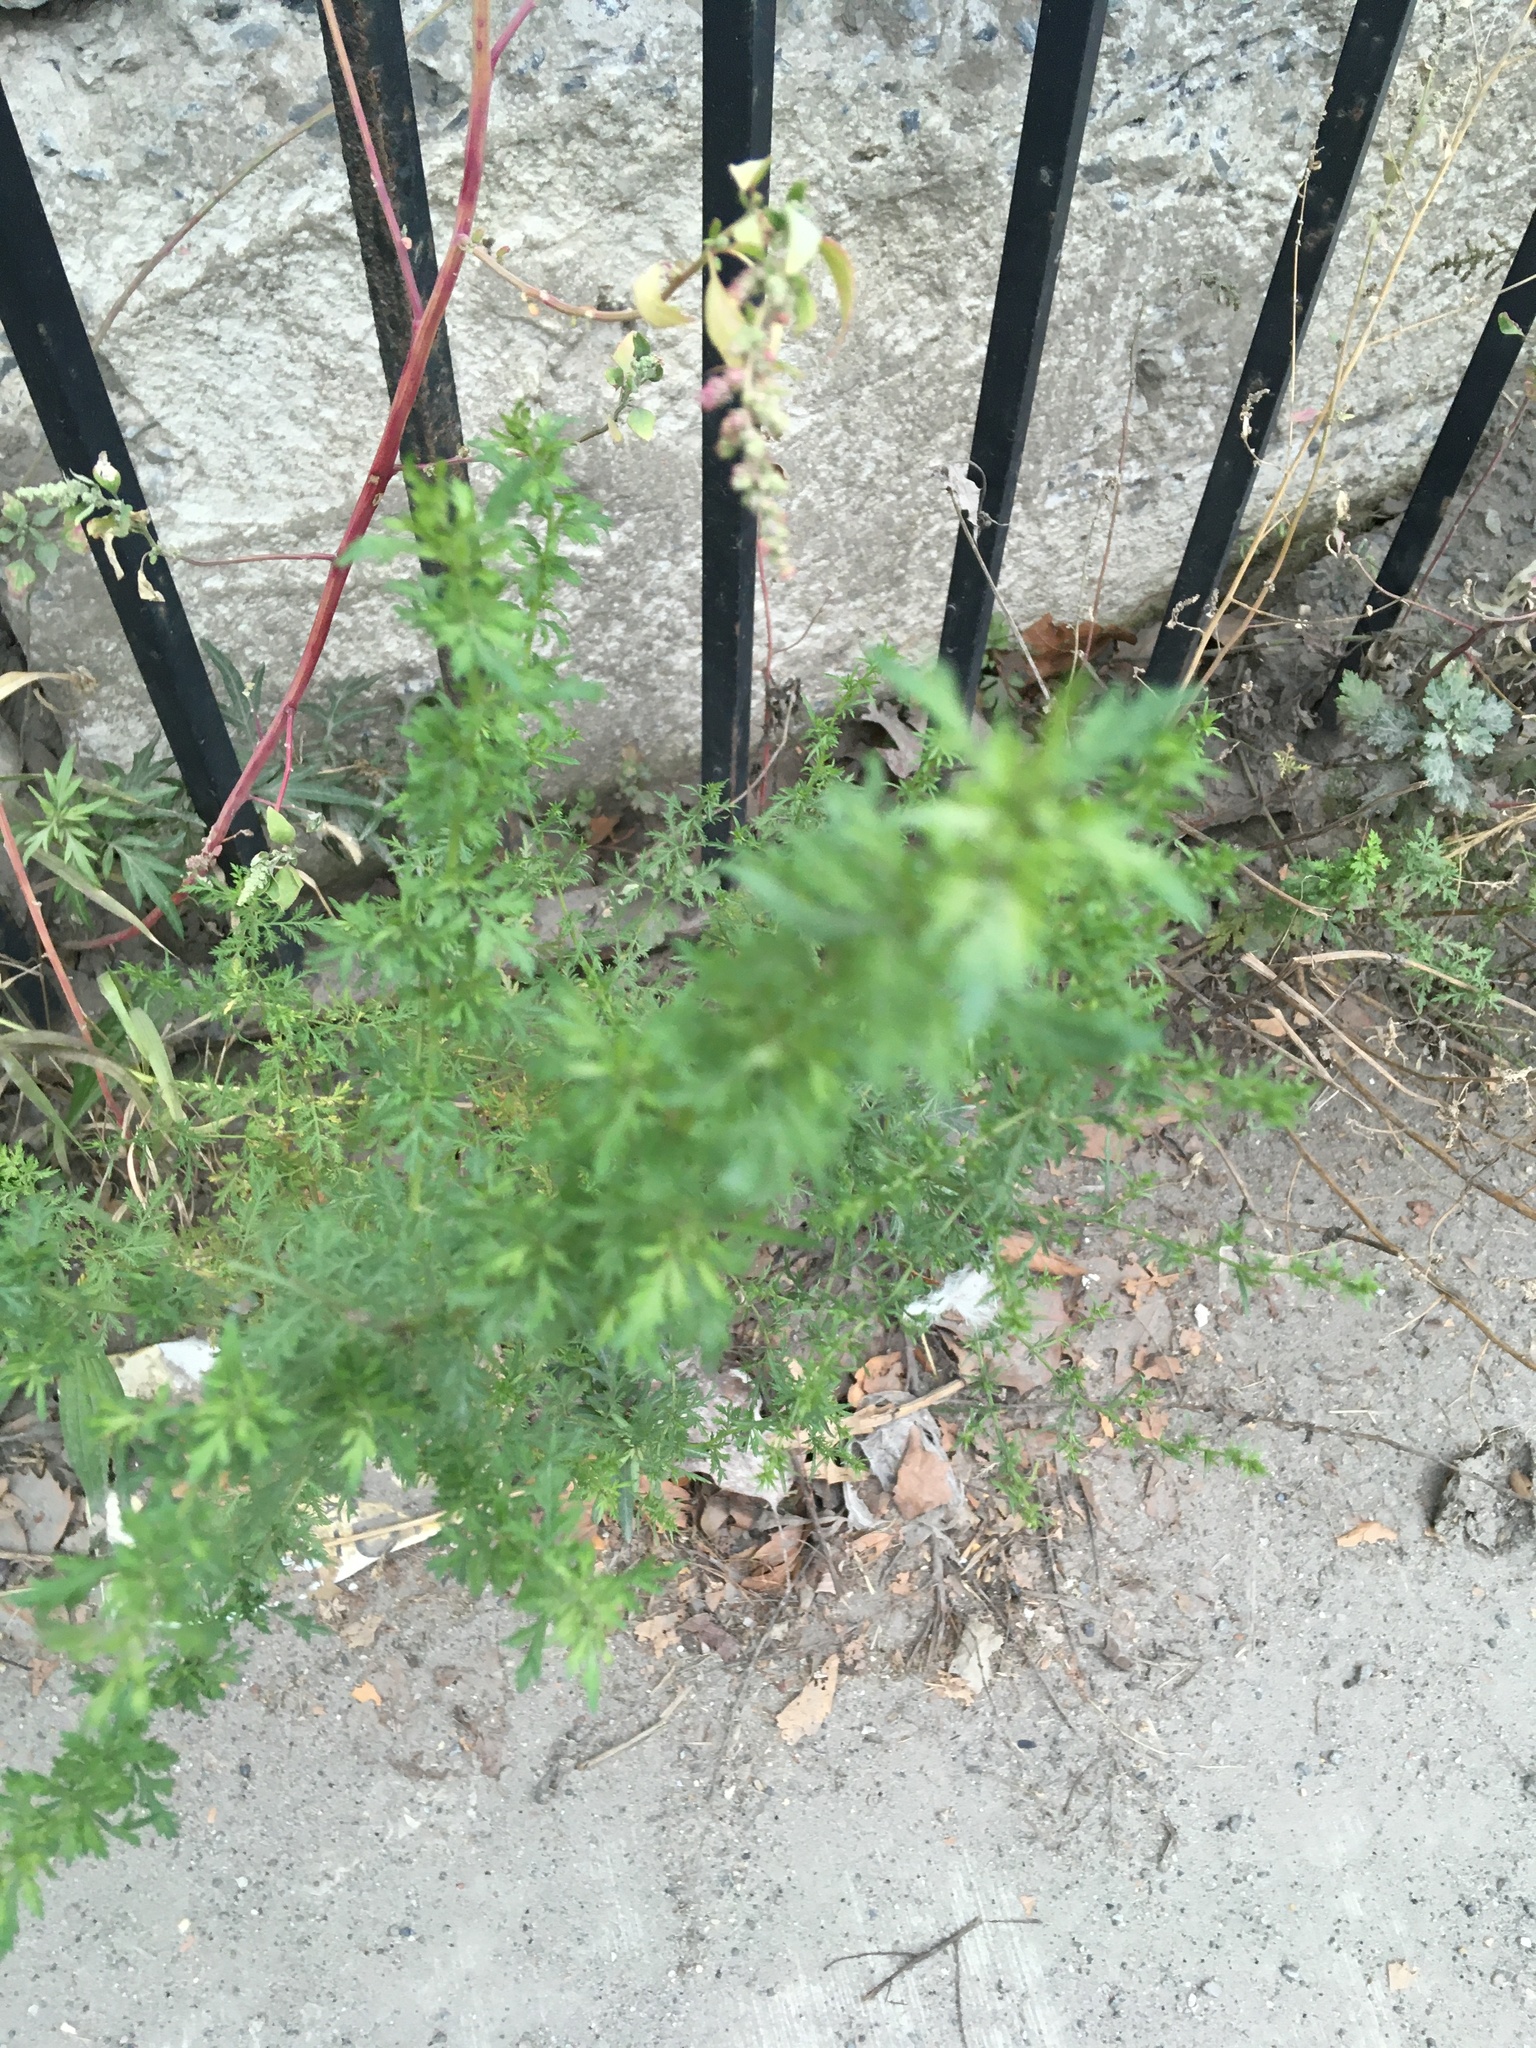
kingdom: Plantae
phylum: Tracheophyta
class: Magnoliopsida
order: Asterales
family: Asteraceae
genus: Artemisia
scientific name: Artemisia annua
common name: Sweet sagewort
